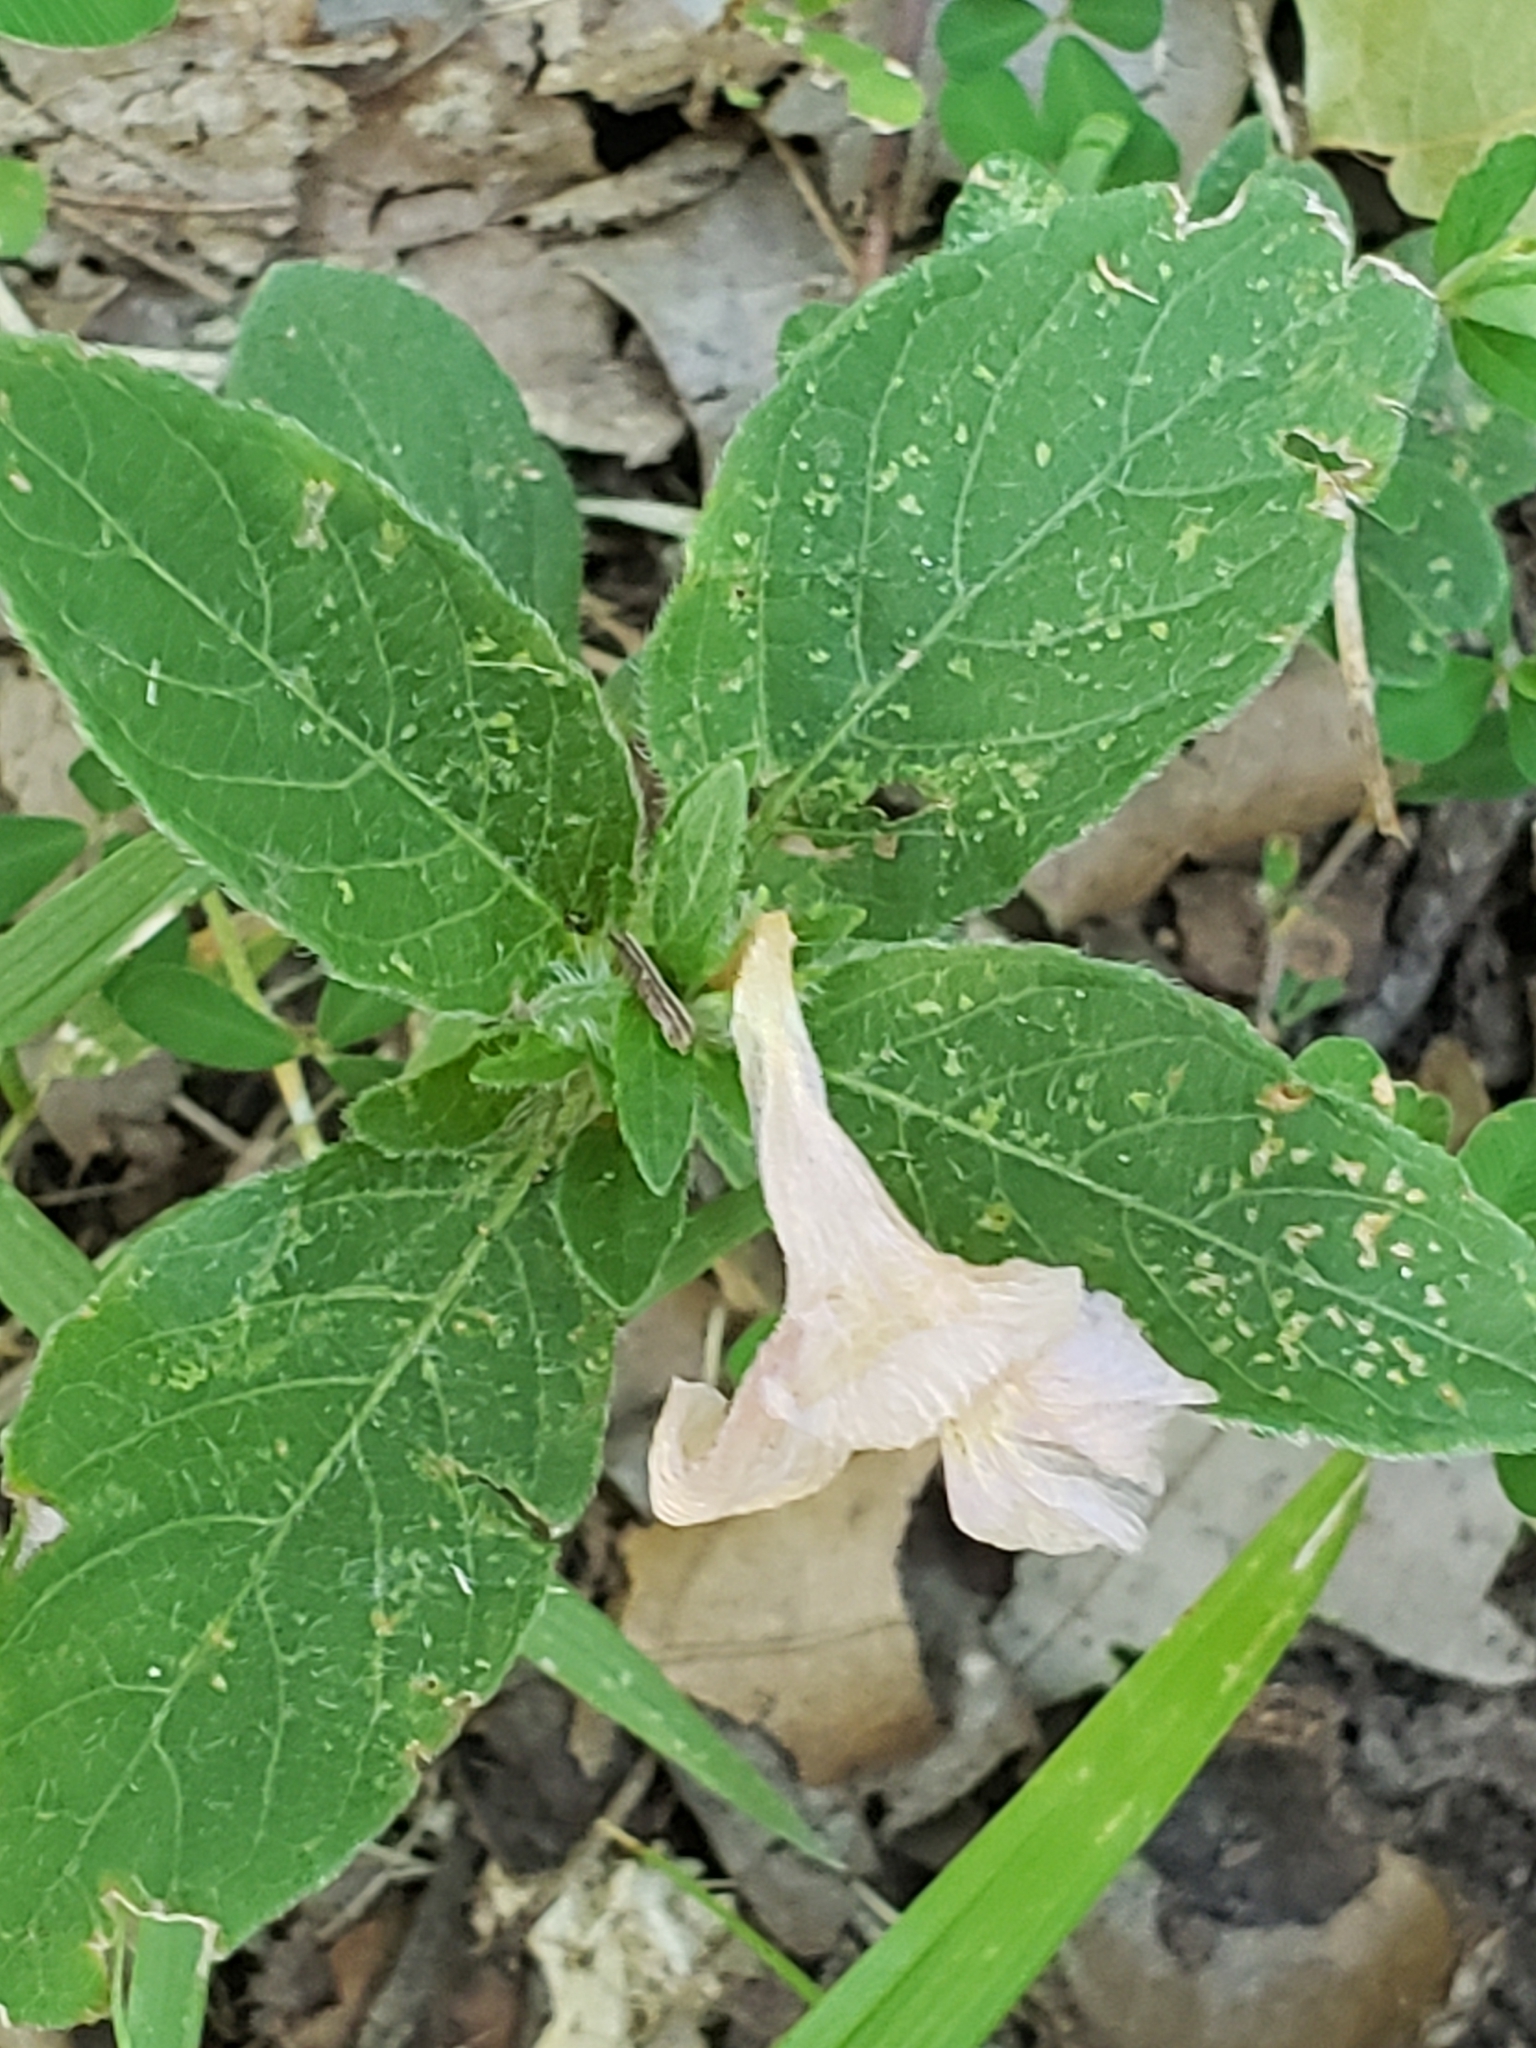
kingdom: Plantae
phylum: Tracheophyta
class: Magnoliopsida
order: Lamiales
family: Acanthaceae
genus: Ruellia
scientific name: Ruellia caroliniensis
